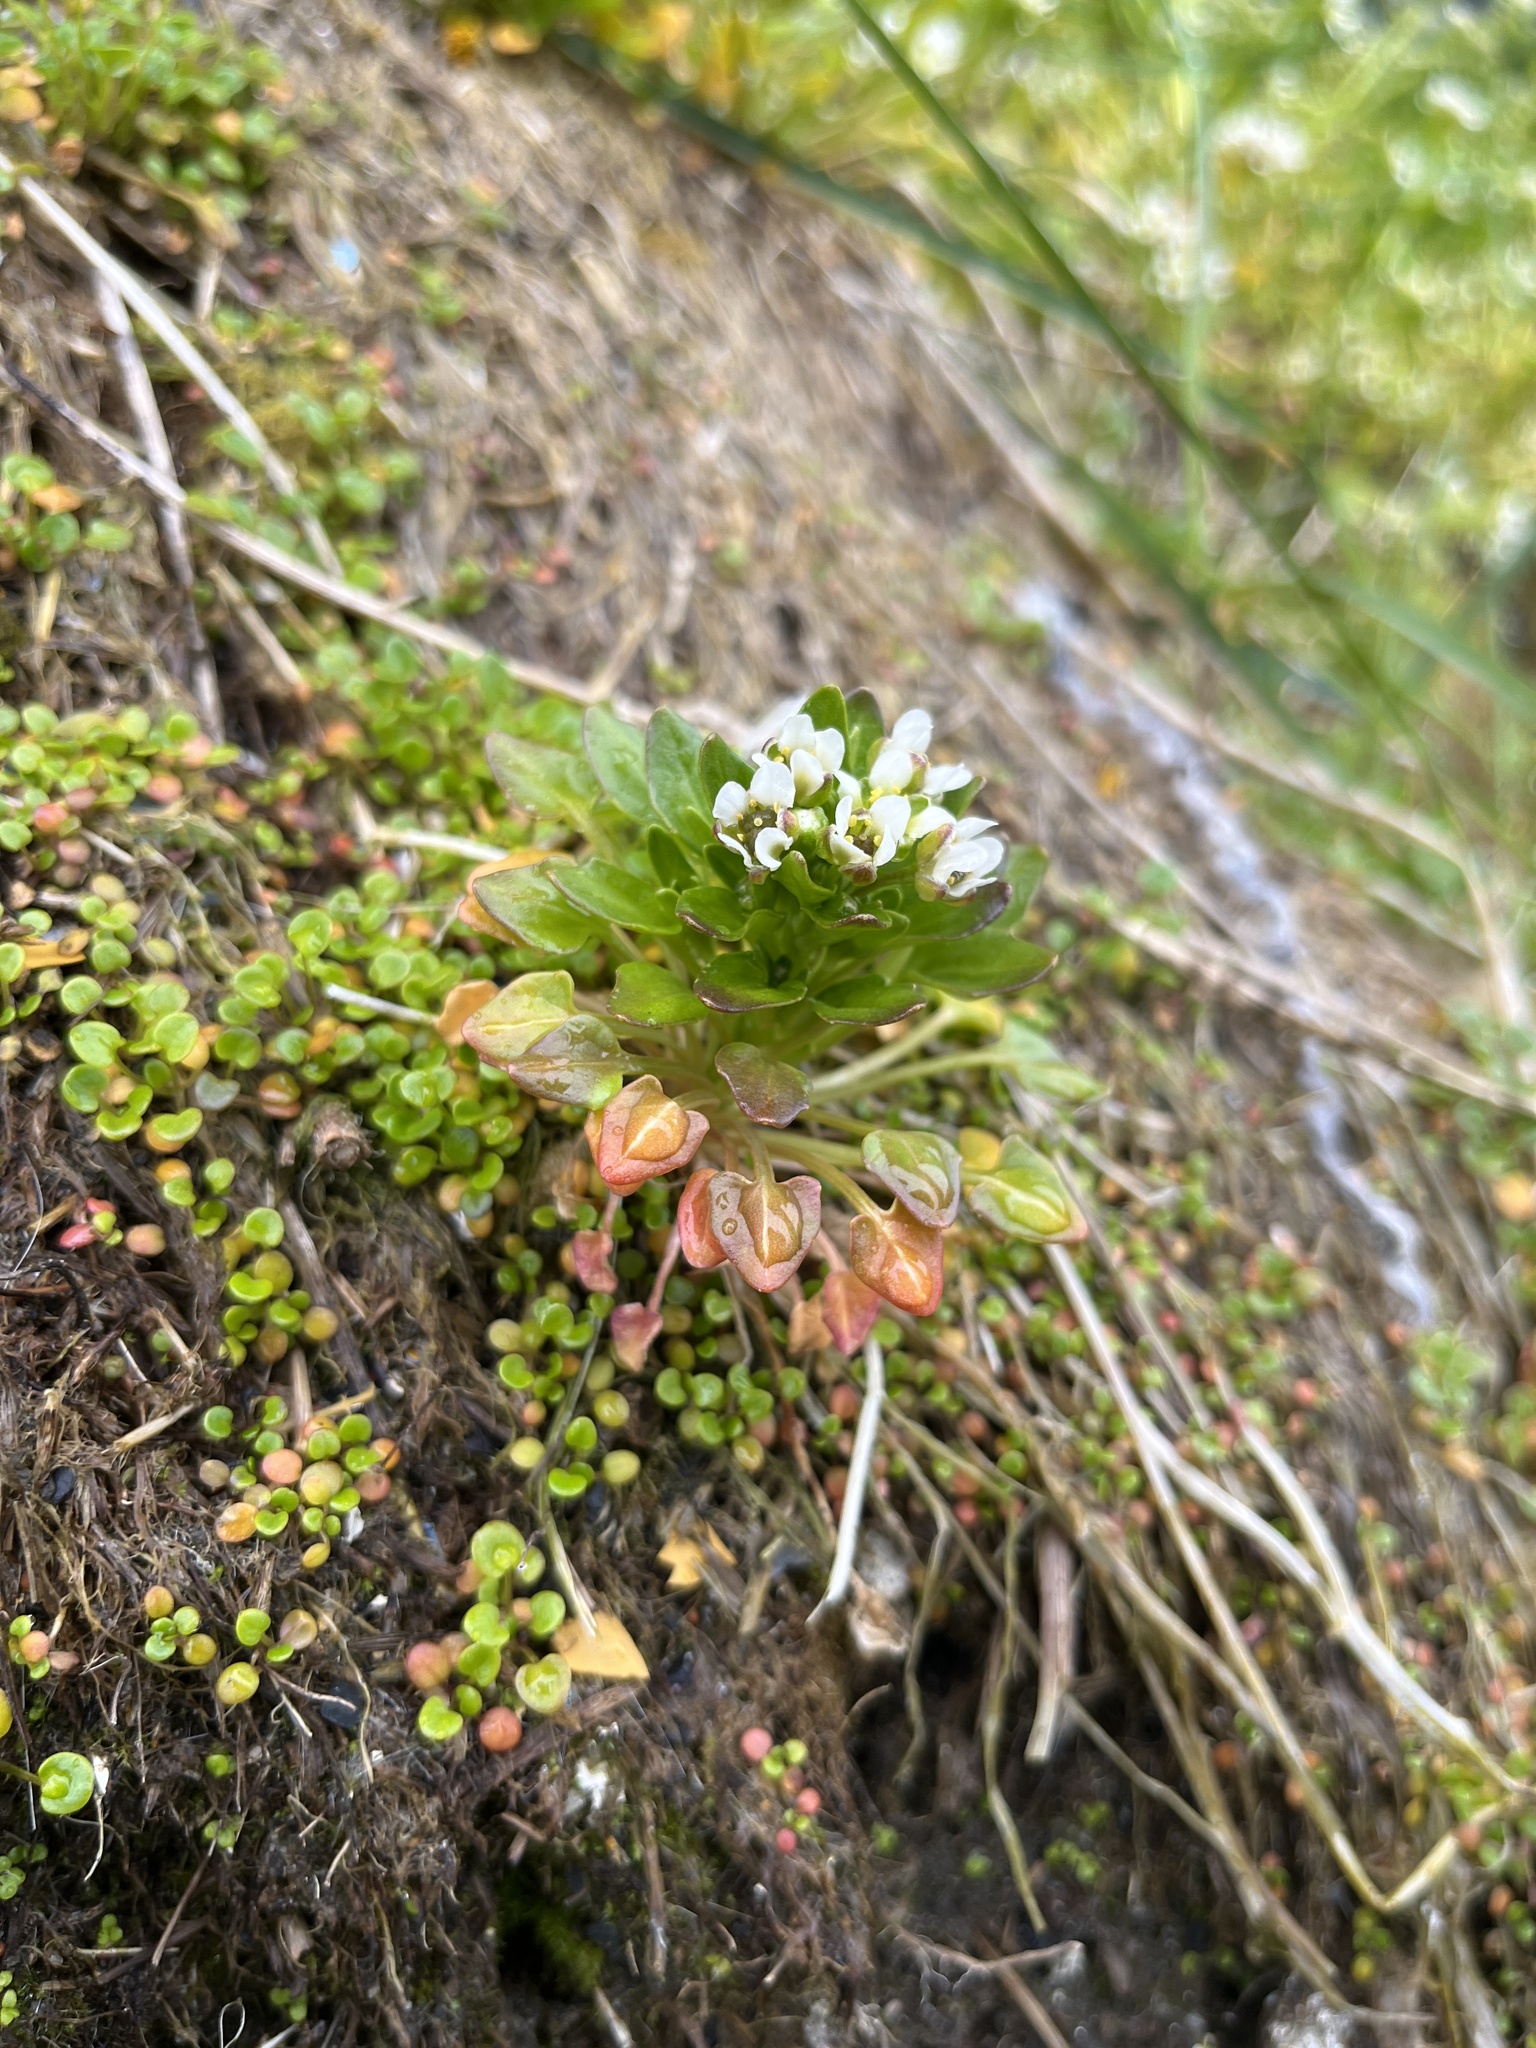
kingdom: Plantae
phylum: Tracheophyta
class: Magnoliopsida
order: Brassicales
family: Brassicaceae
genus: Cochlearia
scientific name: Cochlearia groenlandica
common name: Danish scurvygrass
